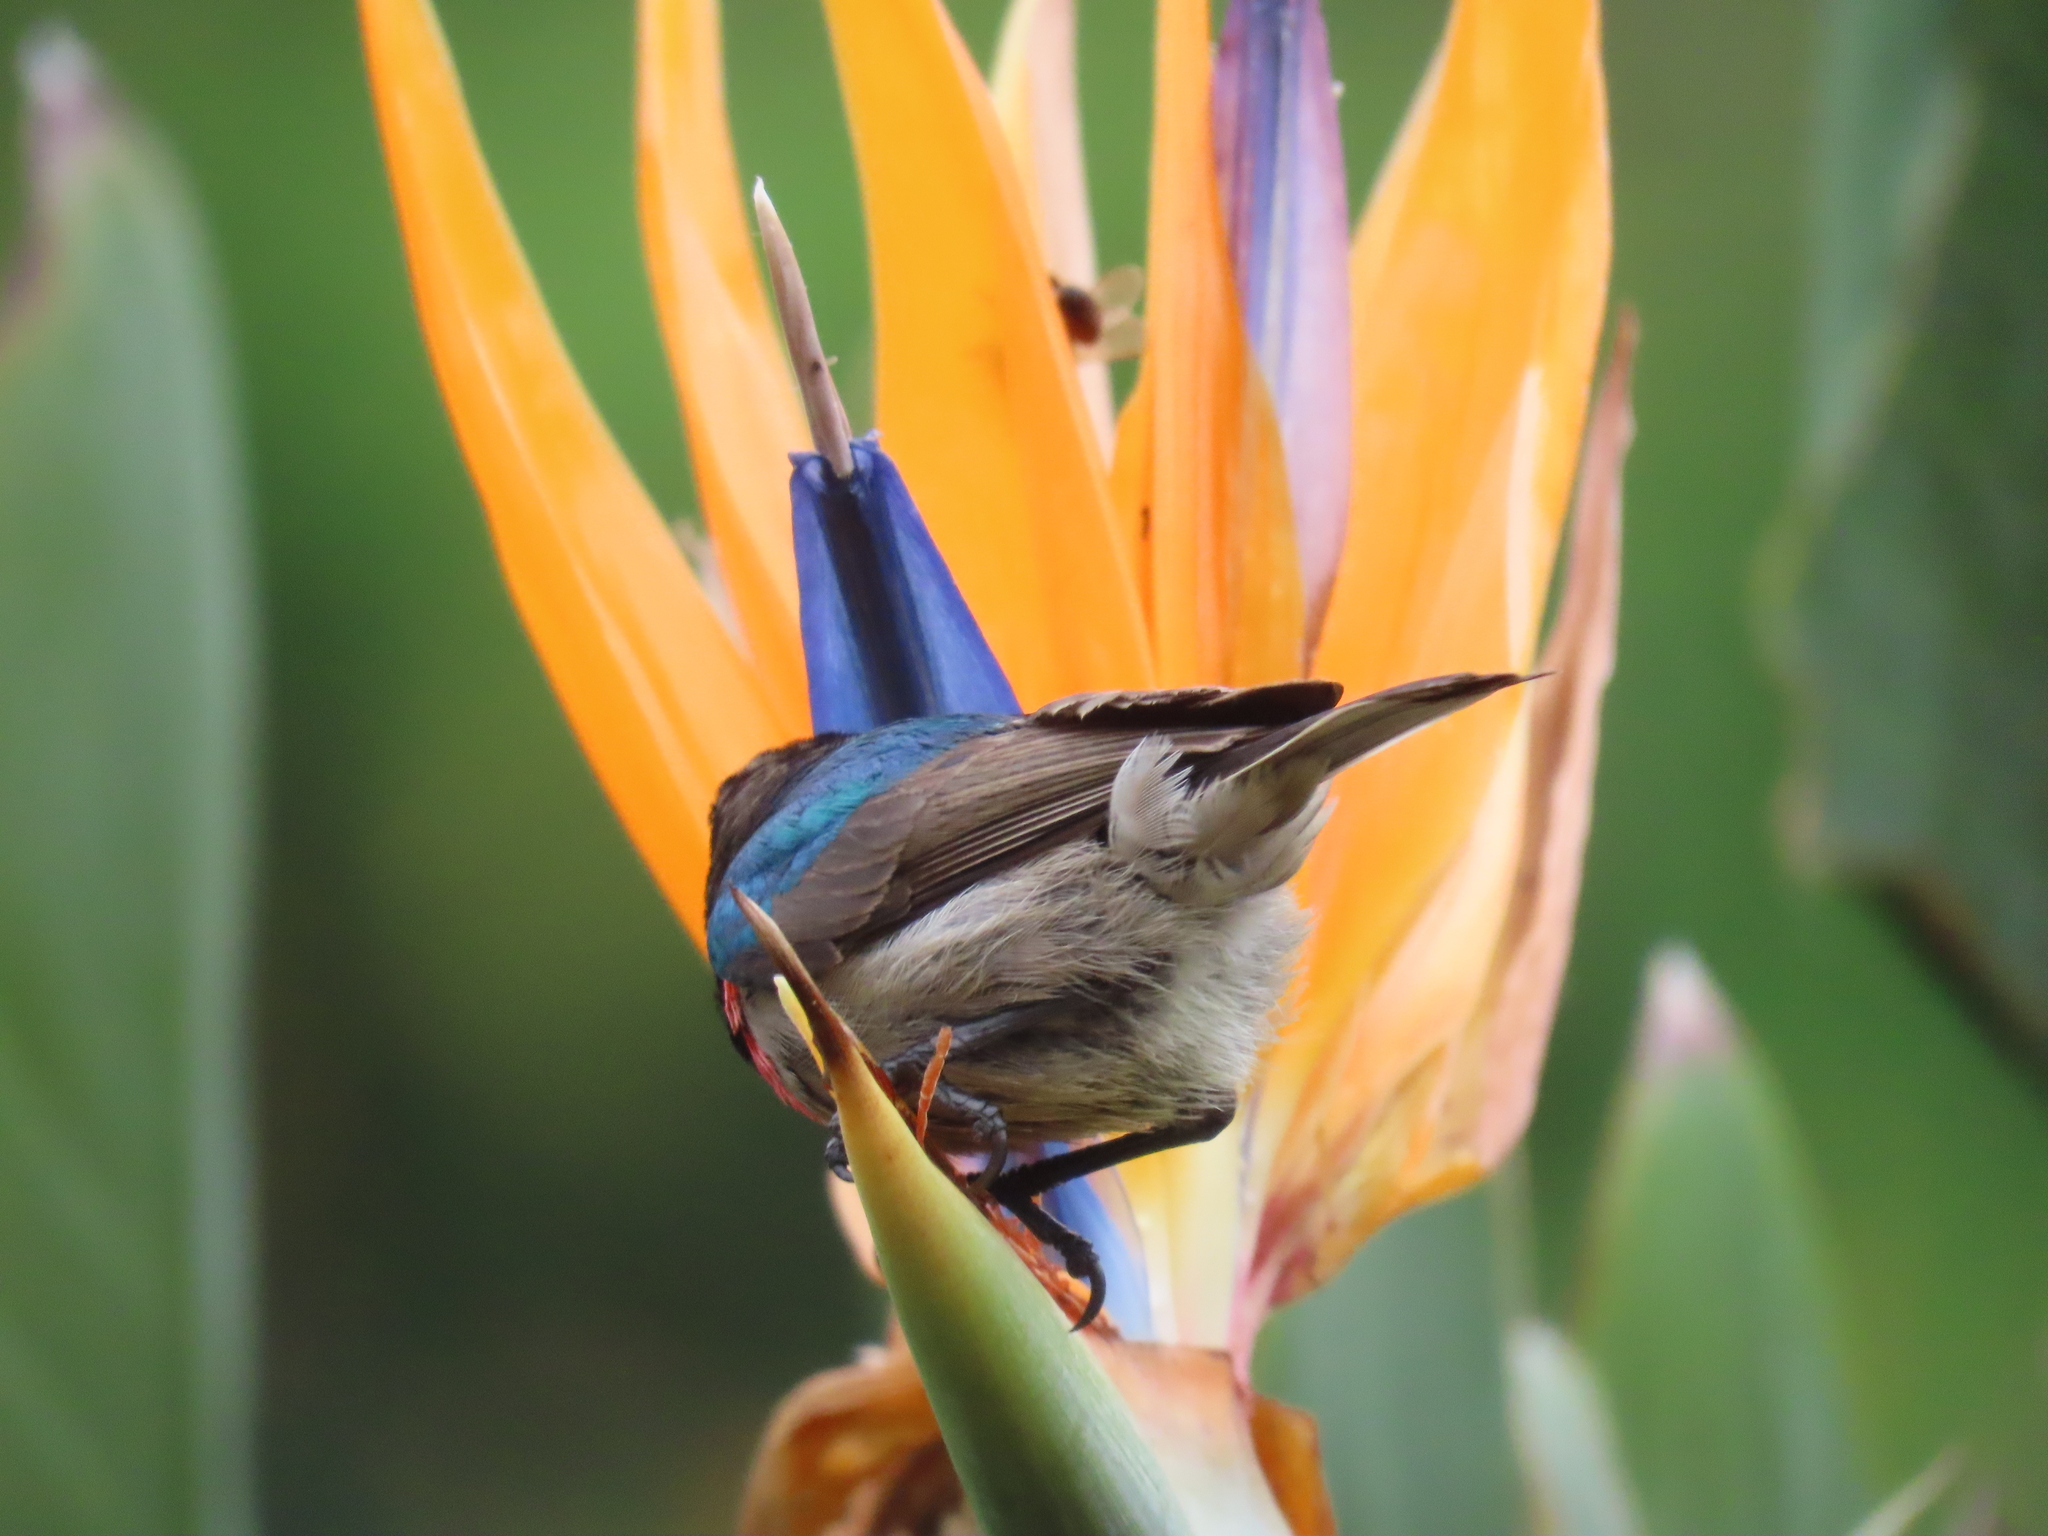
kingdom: Animalia
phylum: Chordata
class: Aves
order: Passeriformes
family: Nectariniidae
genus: Cinnyris
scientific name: Cinnyris chalybeus
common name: Southern double-collared sunbird
